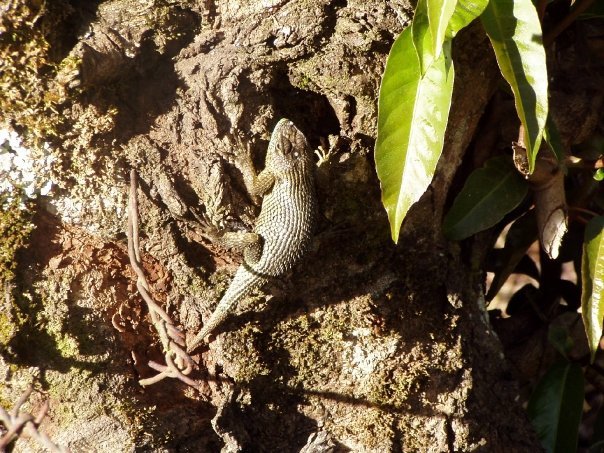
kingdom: Animalia
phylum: Chordata
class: Squamata
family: Phrynosomatidae
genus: Sceloporus
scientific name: Sceloporus malachiticus
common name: Green spiny lizard
